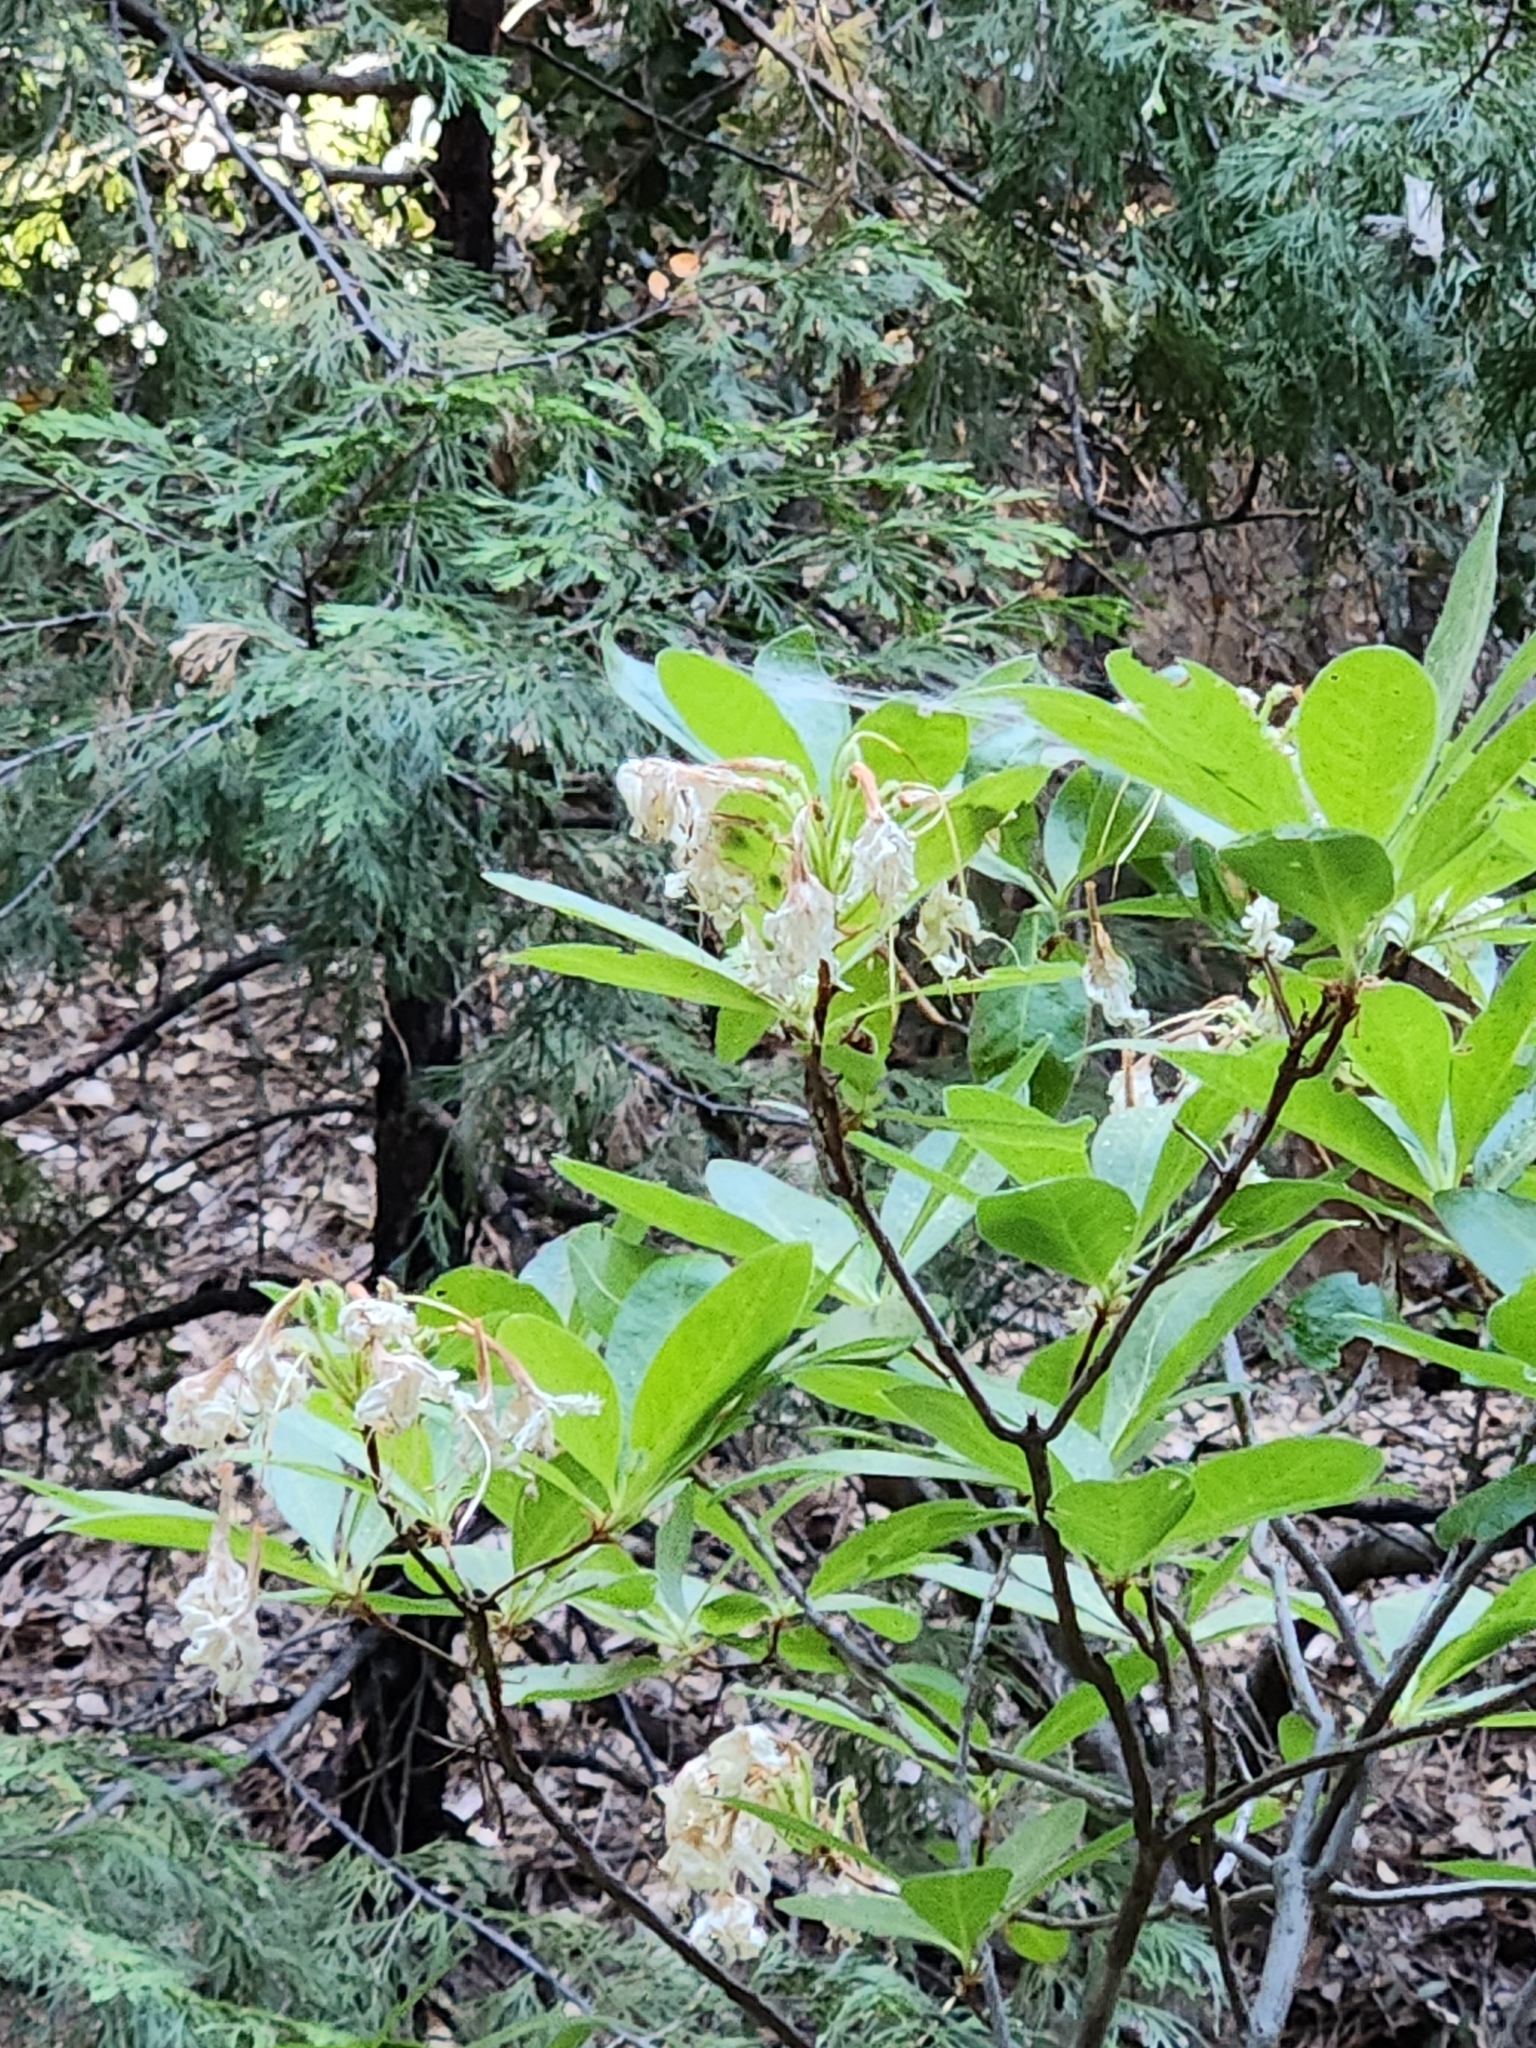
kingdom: Plantae
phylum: Tracheophyta
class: Magnoliopsida
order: Ericales
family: Ericaceae
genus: Rhododendron
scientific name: Rhododendron occidentale
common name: Western azalea
